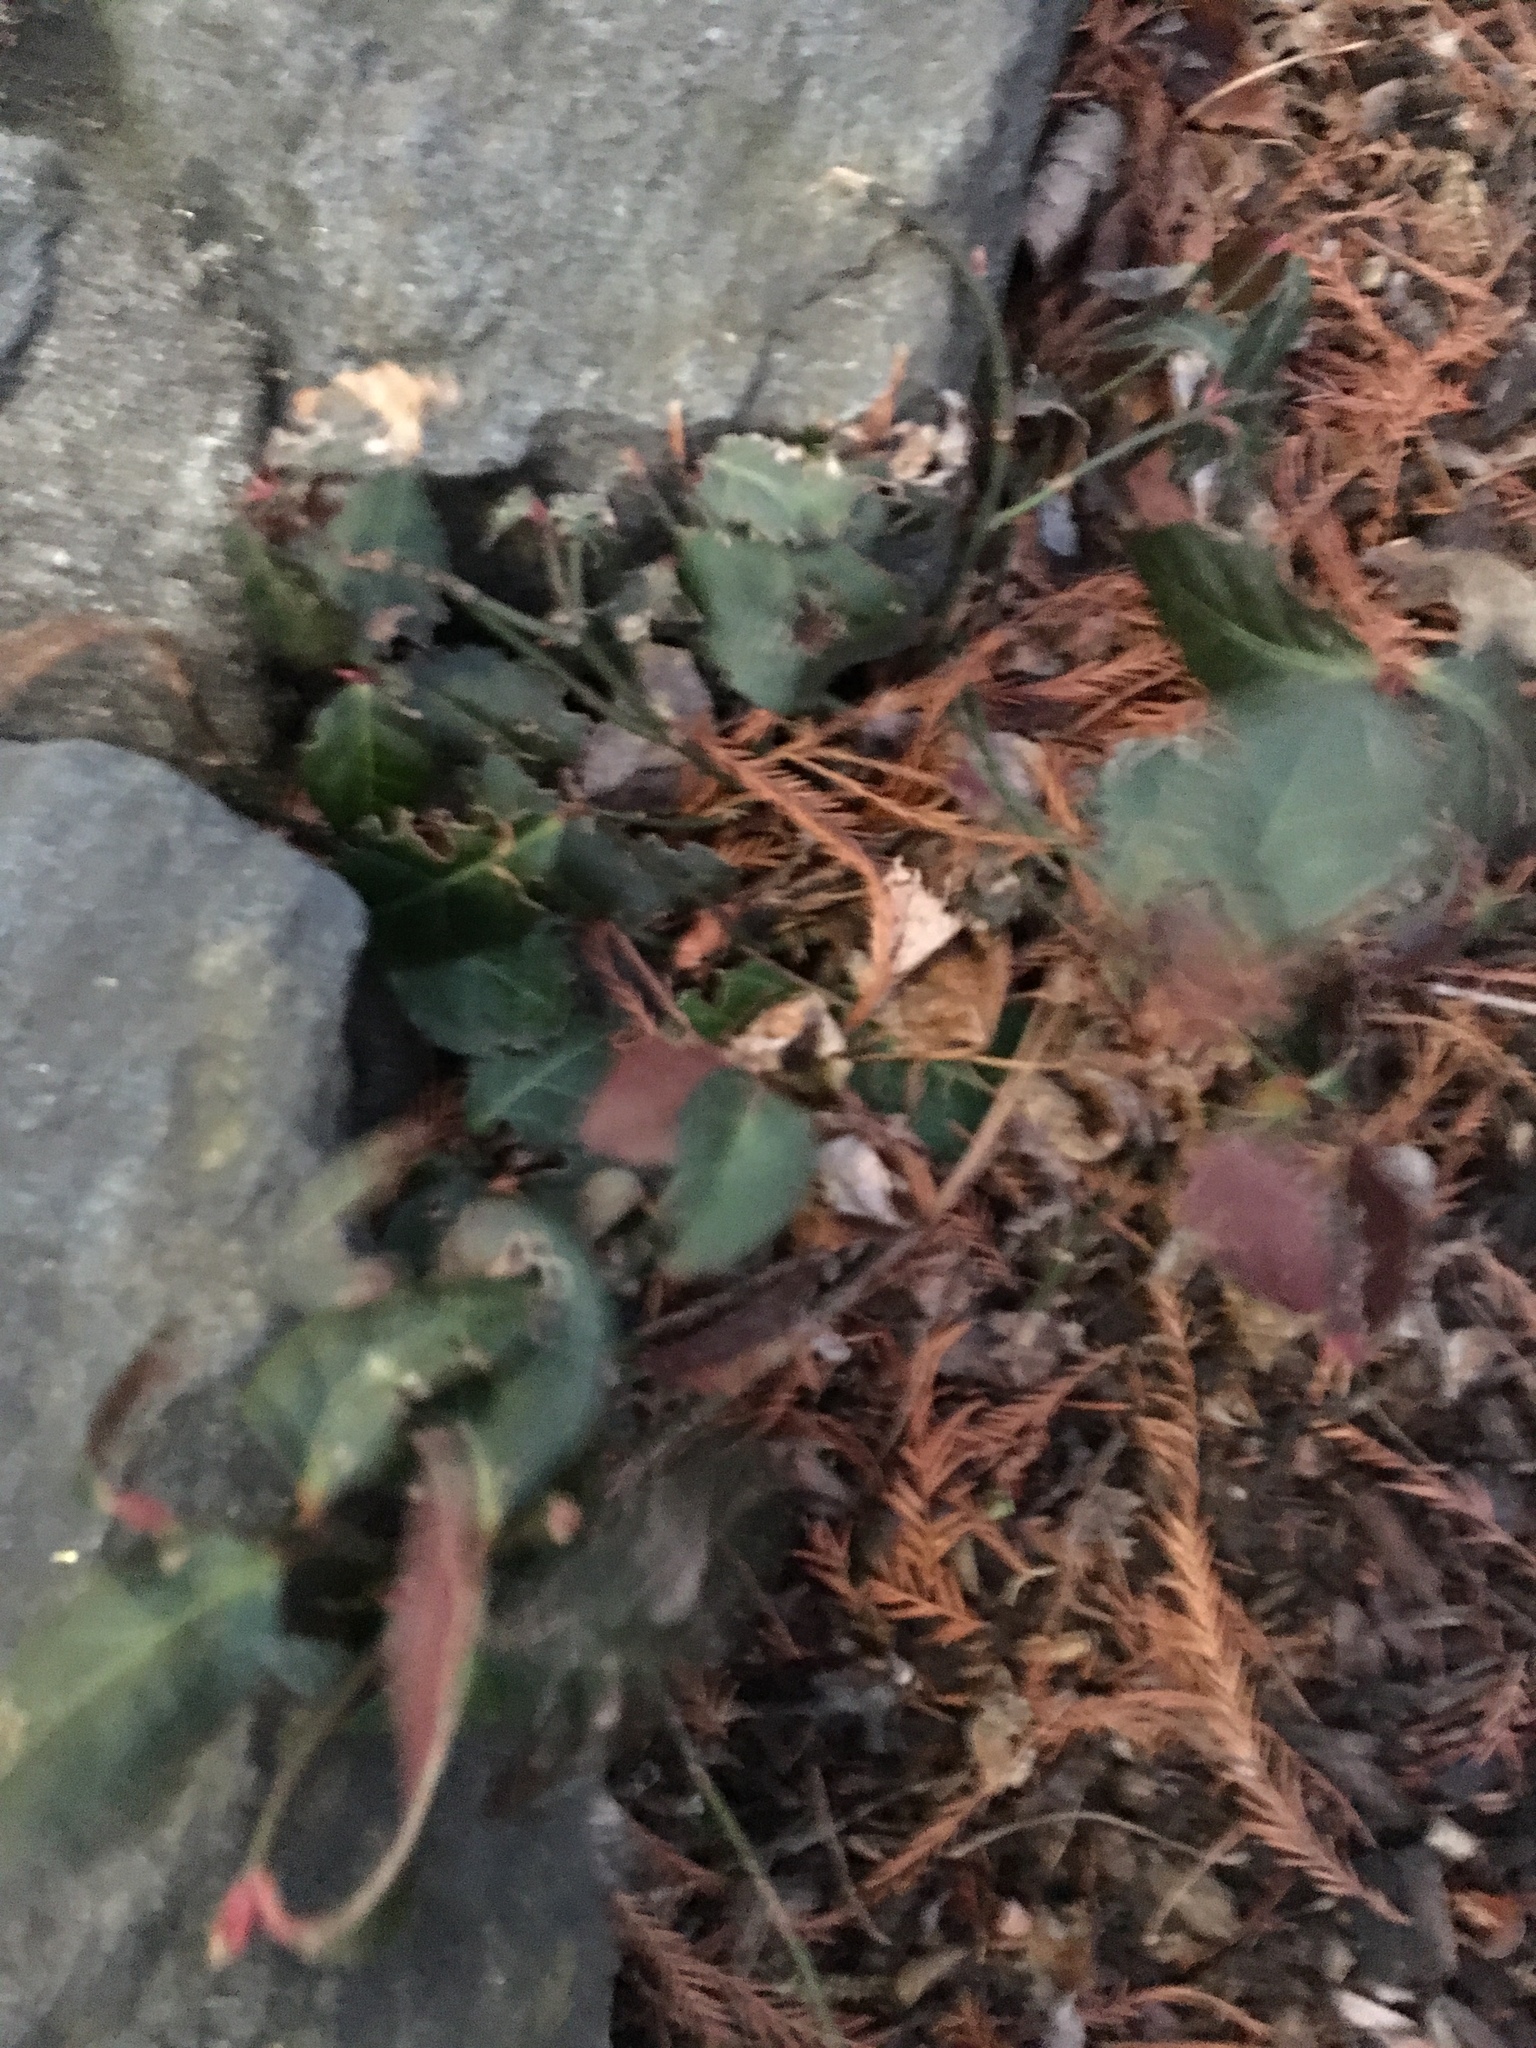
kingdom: Plantae
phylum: Tracheophyta
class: Magnoliopsida
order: Celastrales
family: Celastraceae
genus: Euonymus
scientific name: Euonymus fortunei
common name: Climbing euonymus
